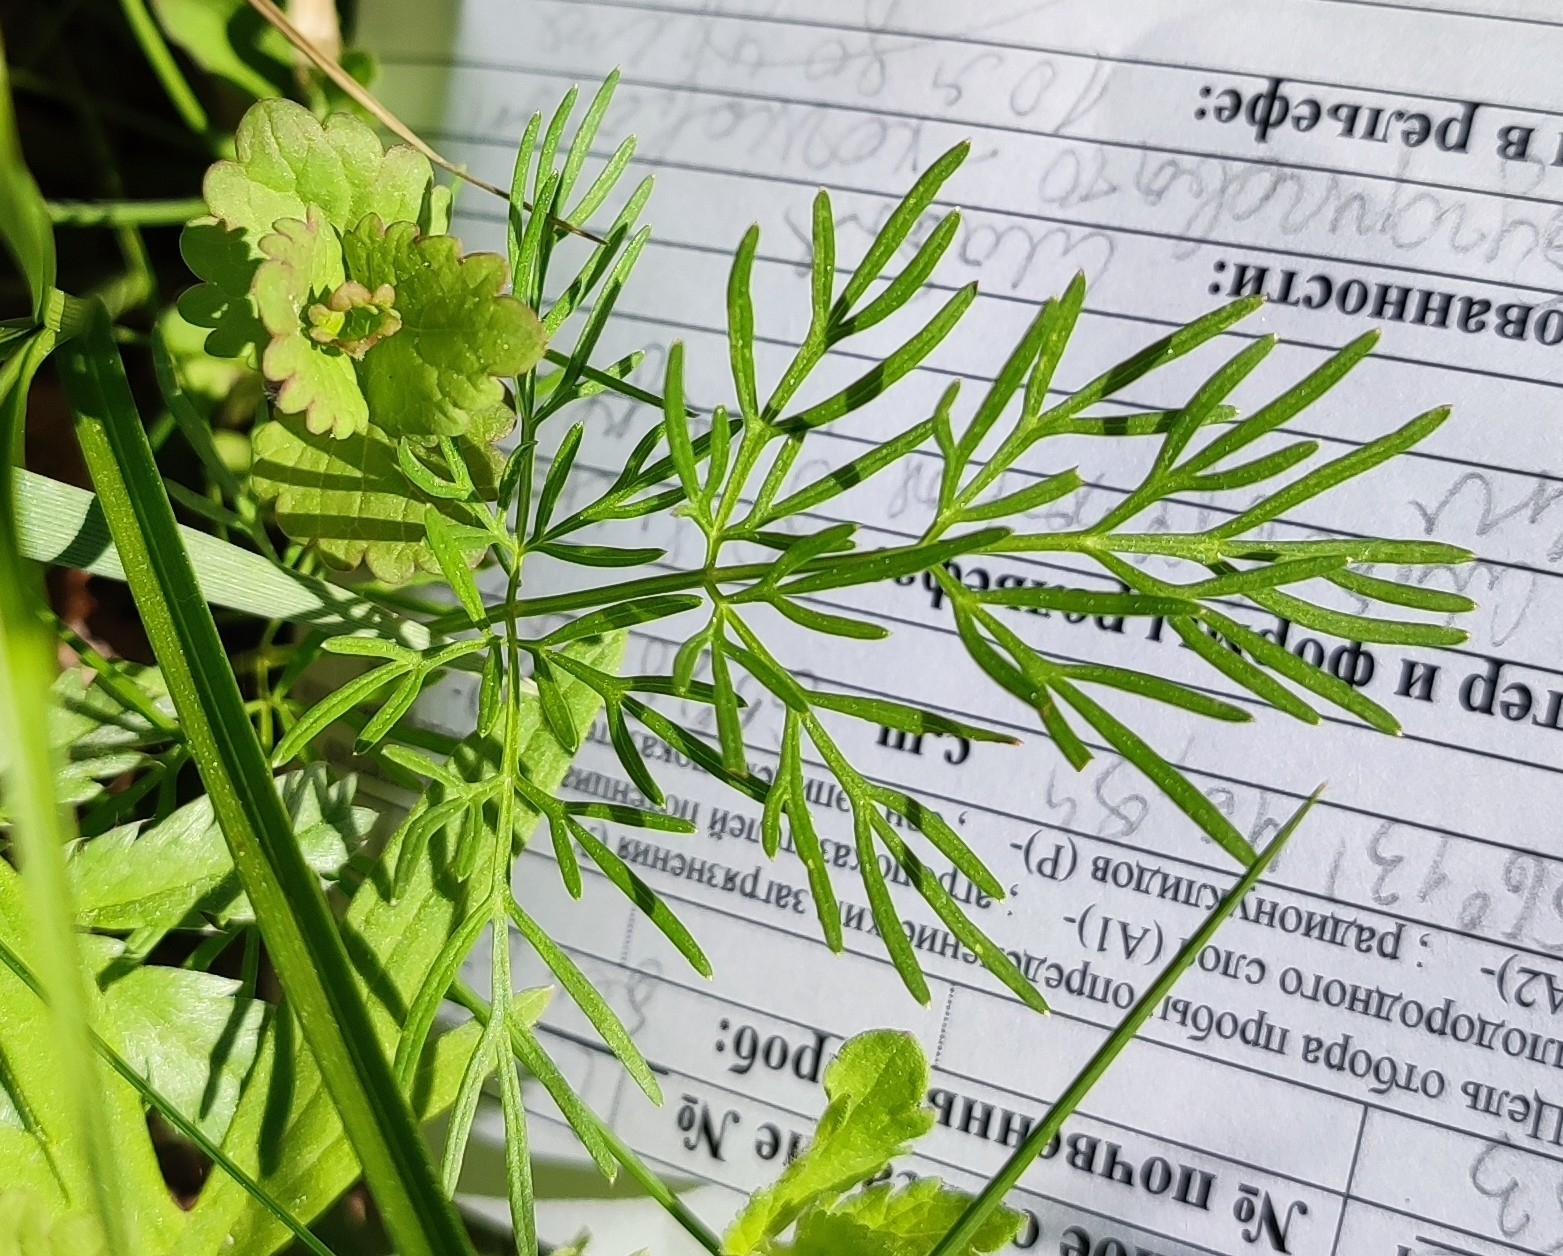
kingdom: Plantae
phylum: Tracheophyta
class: Magnoliopsida
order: Apiales
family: Apiaceae
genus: Kadenia
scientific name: Kadenia dubia
